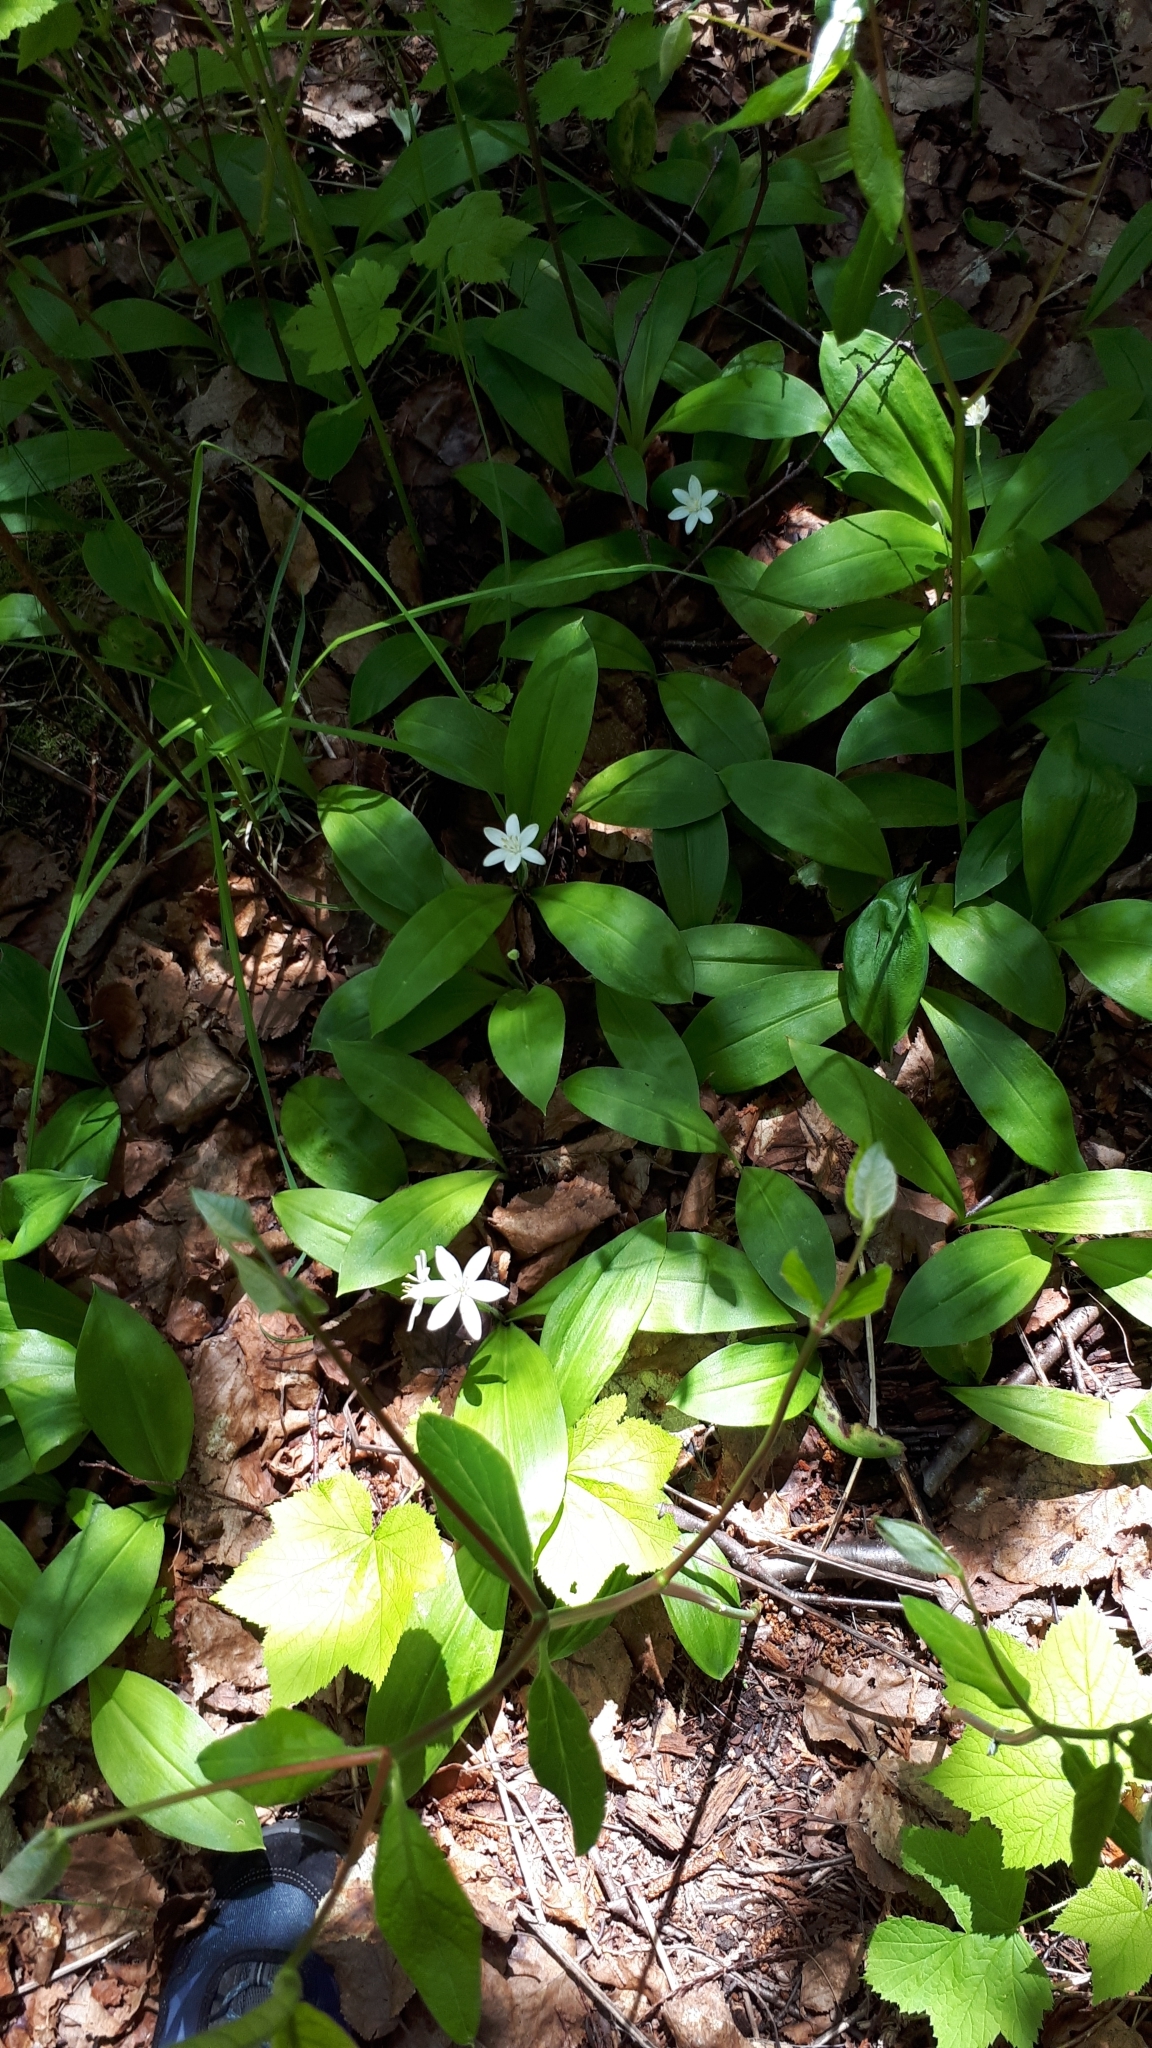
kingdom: Plantae
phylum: Tracheophyta
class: Liliopsida
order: Liliales
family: Liliaceae
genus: Clintonia
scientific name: Clintonia uniflora
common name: Queen's cup
